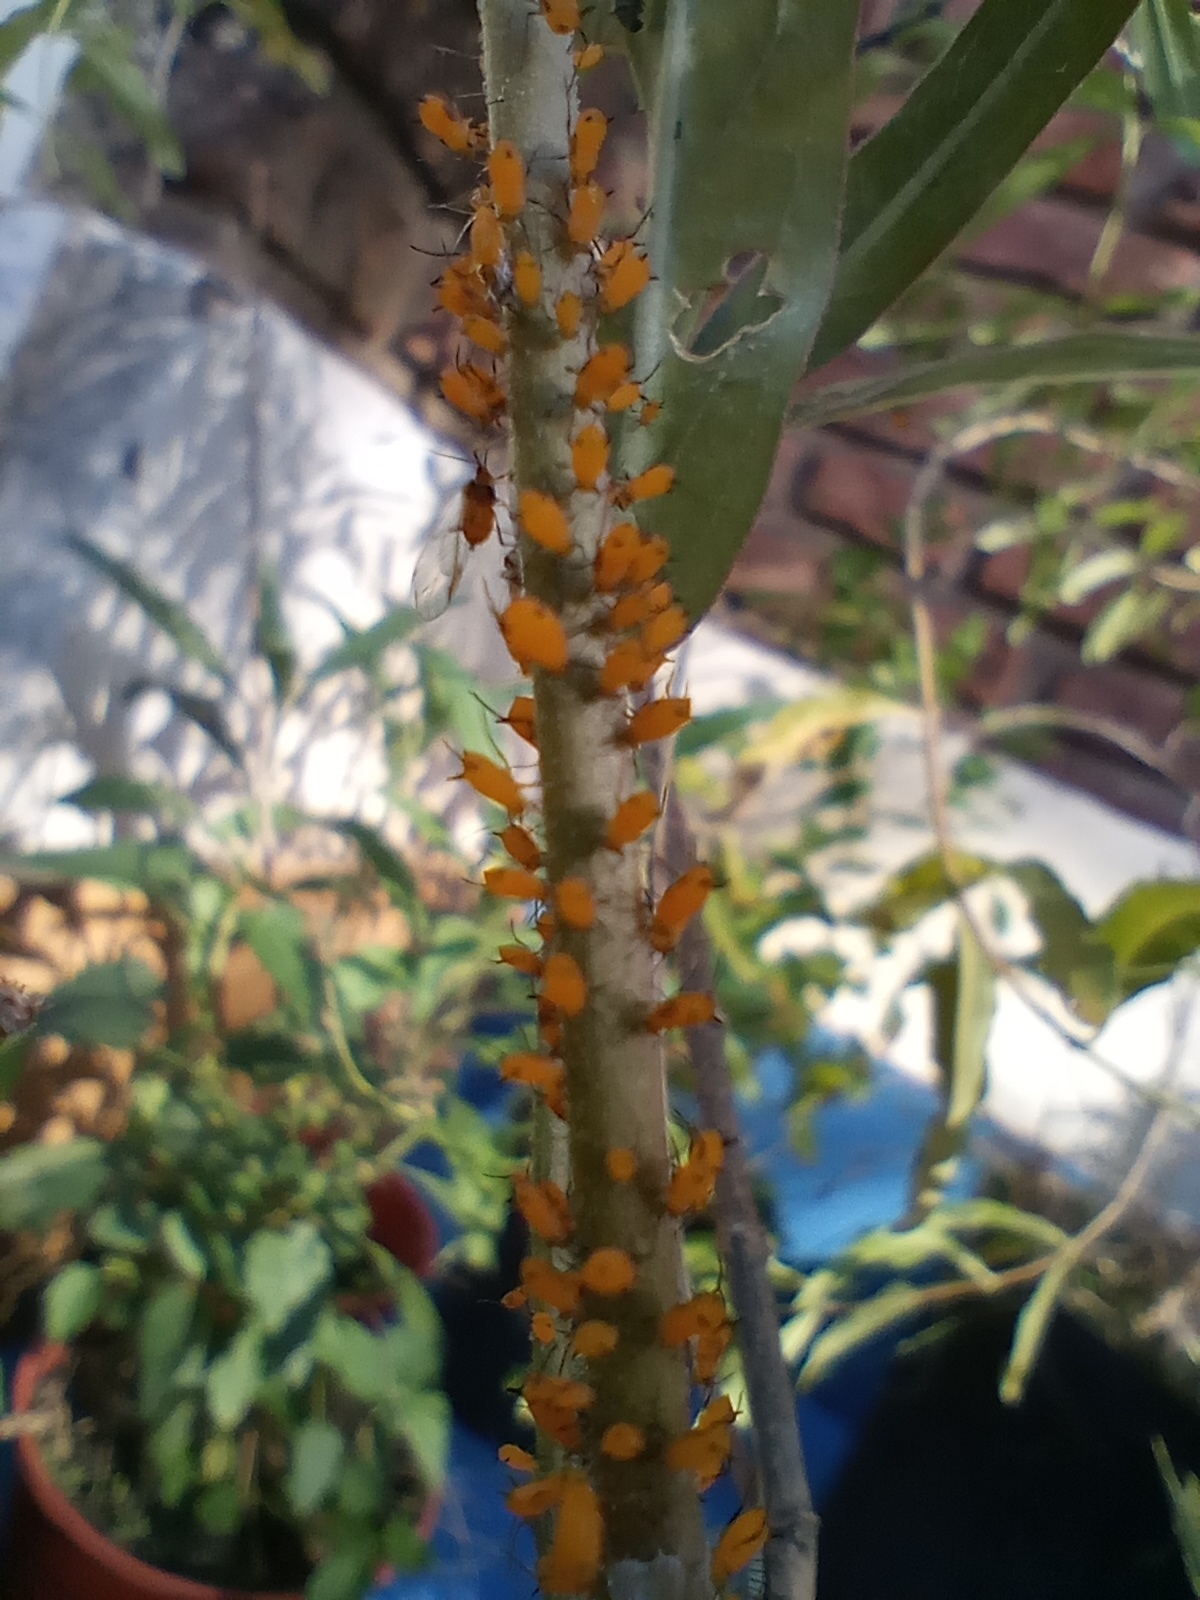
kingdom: Animalia
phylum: Arthropoda
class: Insecta
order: Hemiptera
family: Aphididae
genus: Aphis
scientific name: Aphis nerii
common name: Oleander aphid
